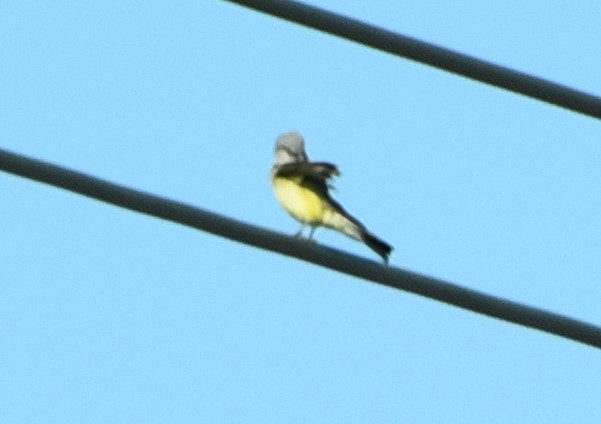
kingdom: Animalia
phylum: Chordata
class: Aves
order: Passeriformes
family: Tyrannidae
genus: Tyrannus
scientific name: Tyrannus verticalis
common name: Western kingbird
